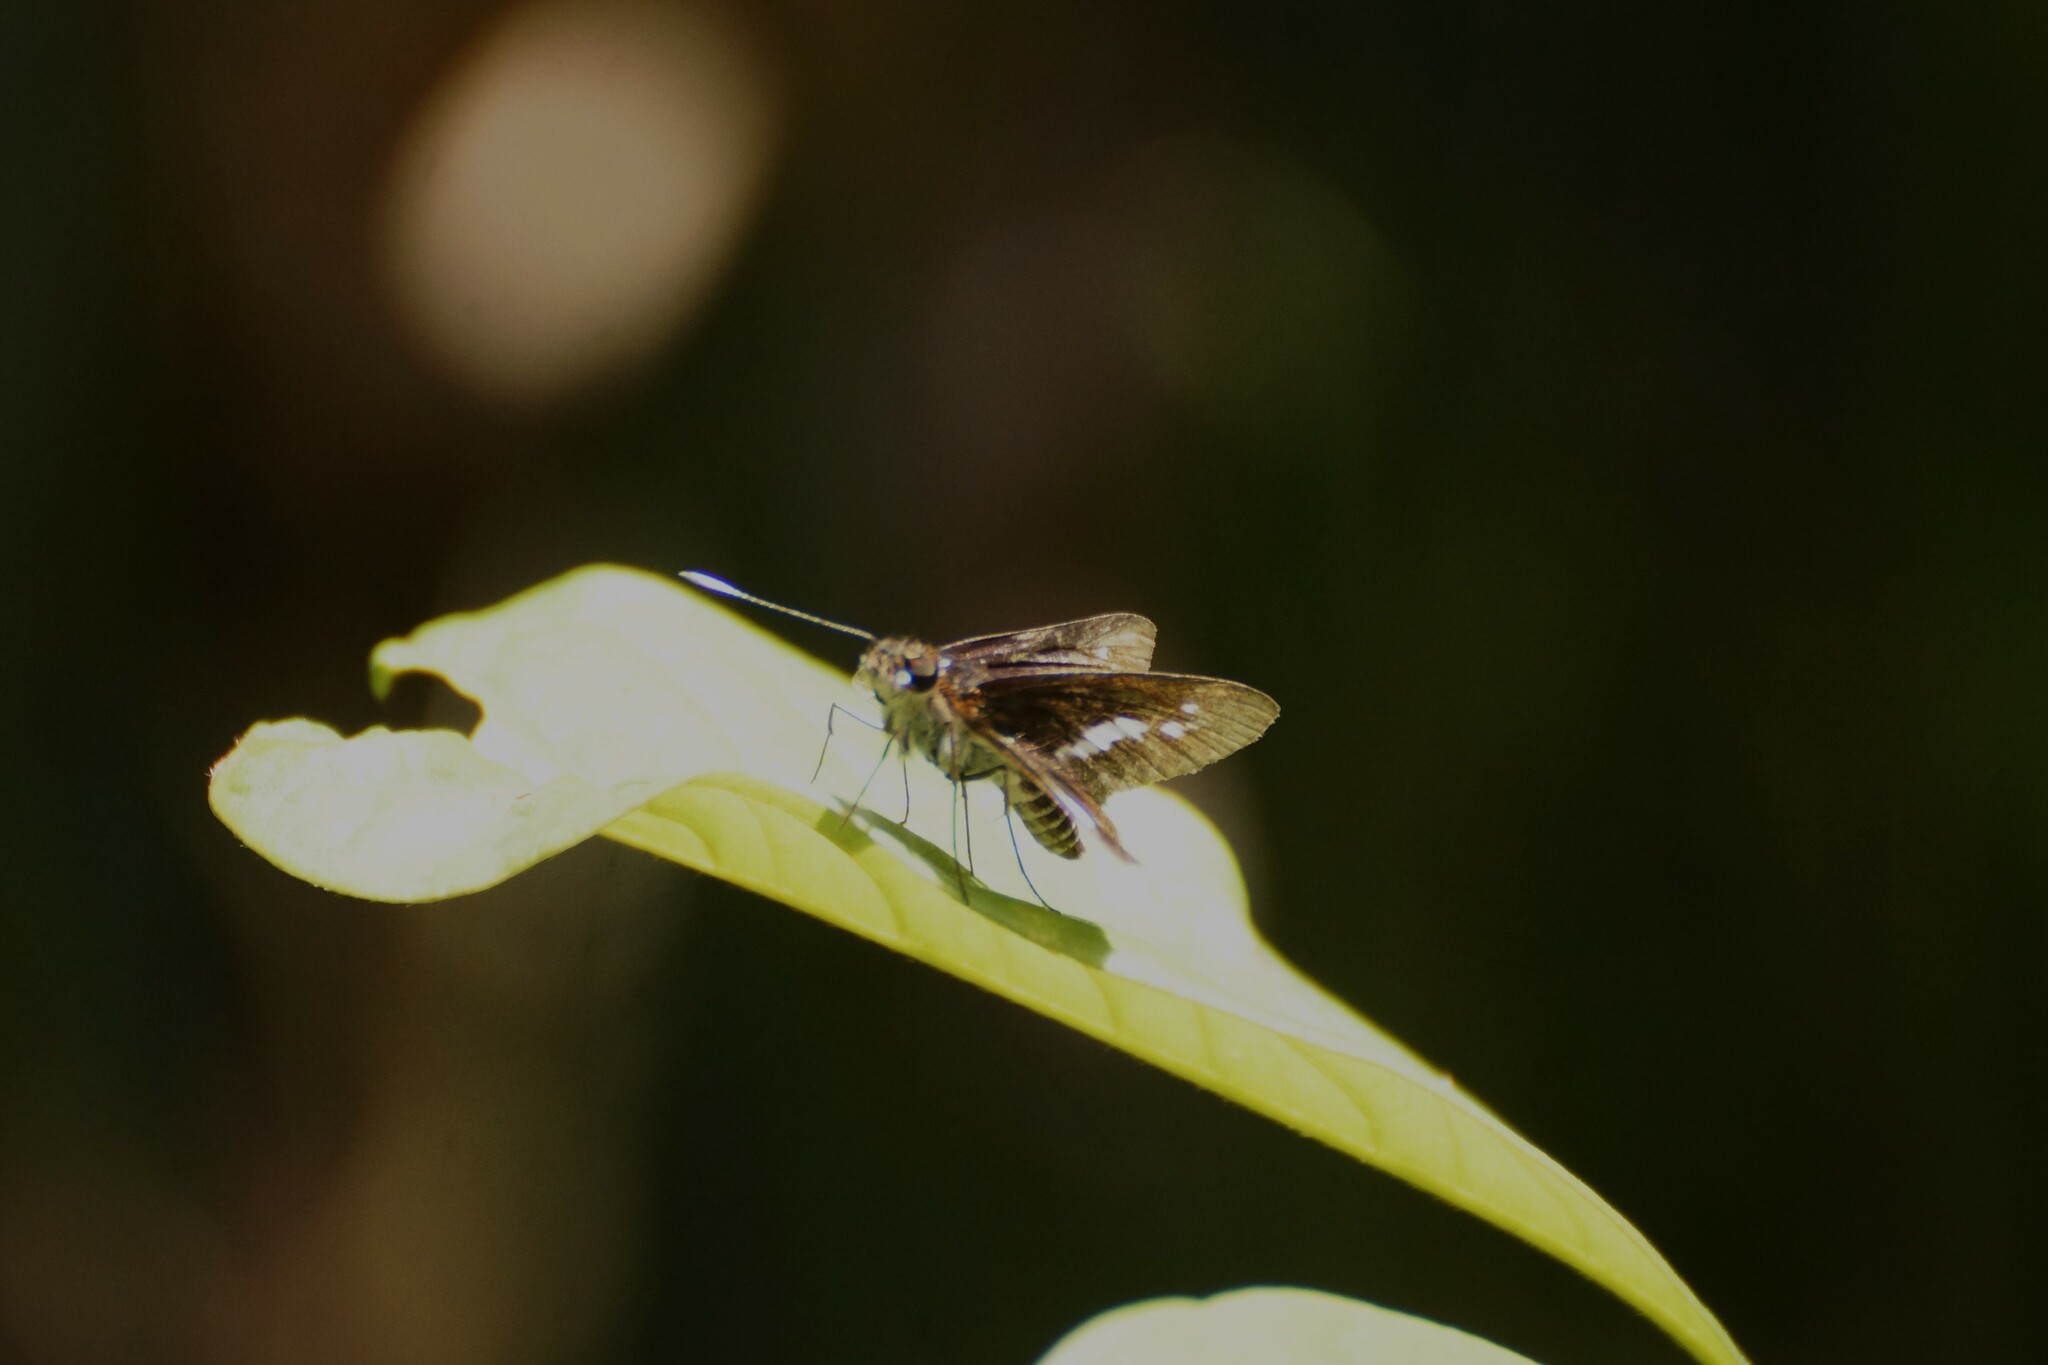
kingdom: Animalia
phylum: Arthropoda
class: Insecta
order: Lepidoptera
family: Hesperiidae
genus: Sabera
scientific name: Sabera caesina
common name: White-clubbed swift
